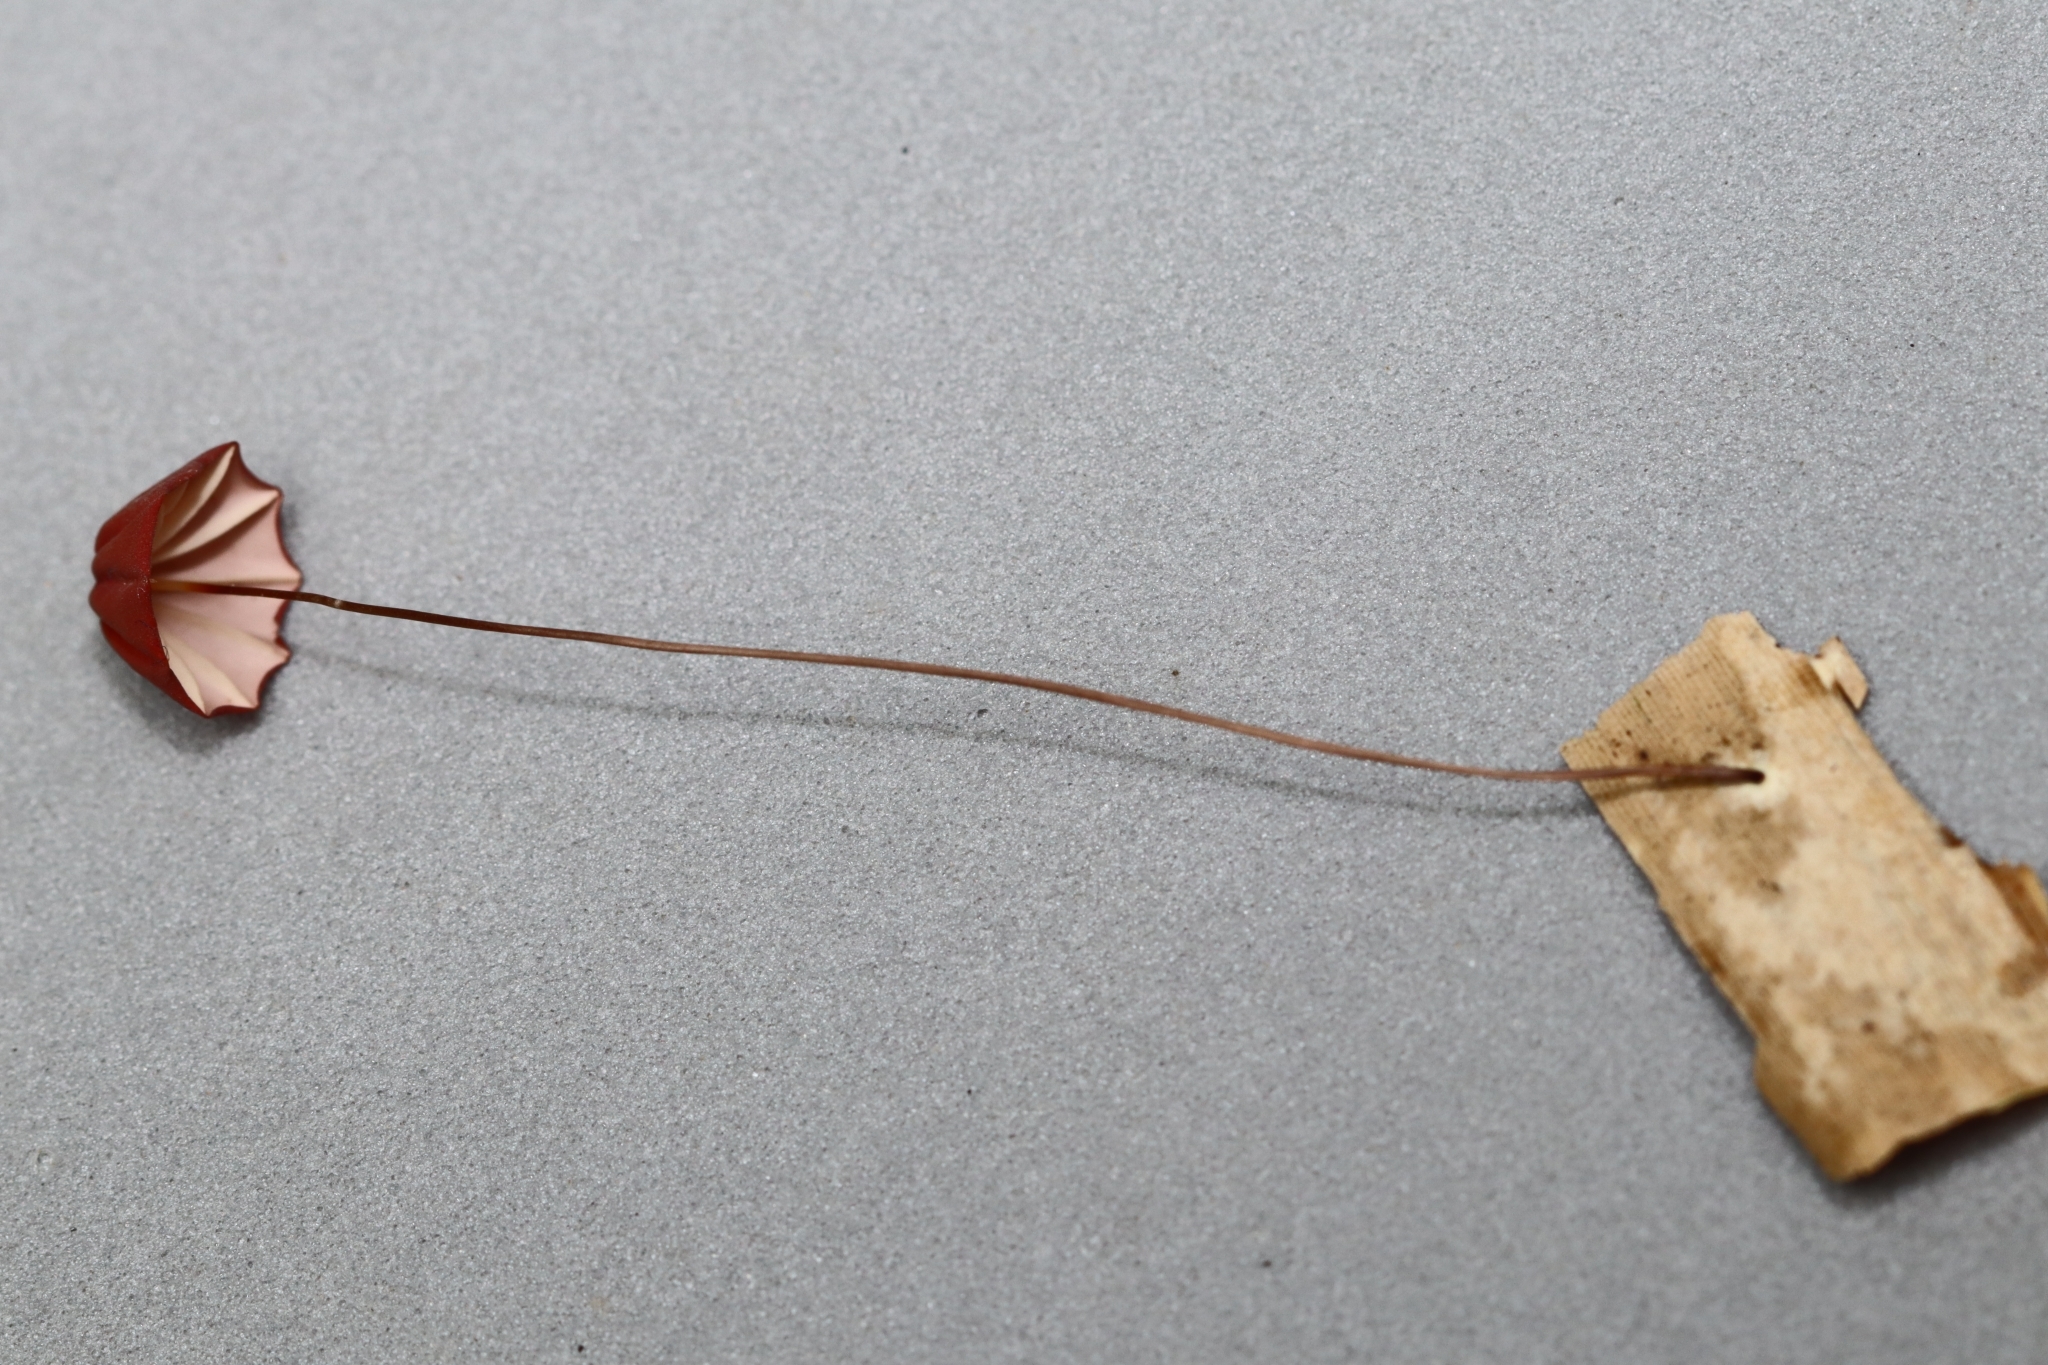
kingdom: Fungi
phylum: Basidiomycota
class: Agaricomycetes
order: Agaricales
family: Marasmiaceae
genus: Marasmius
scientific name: Marasmius haematocephalus
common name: Purple pinwheel
